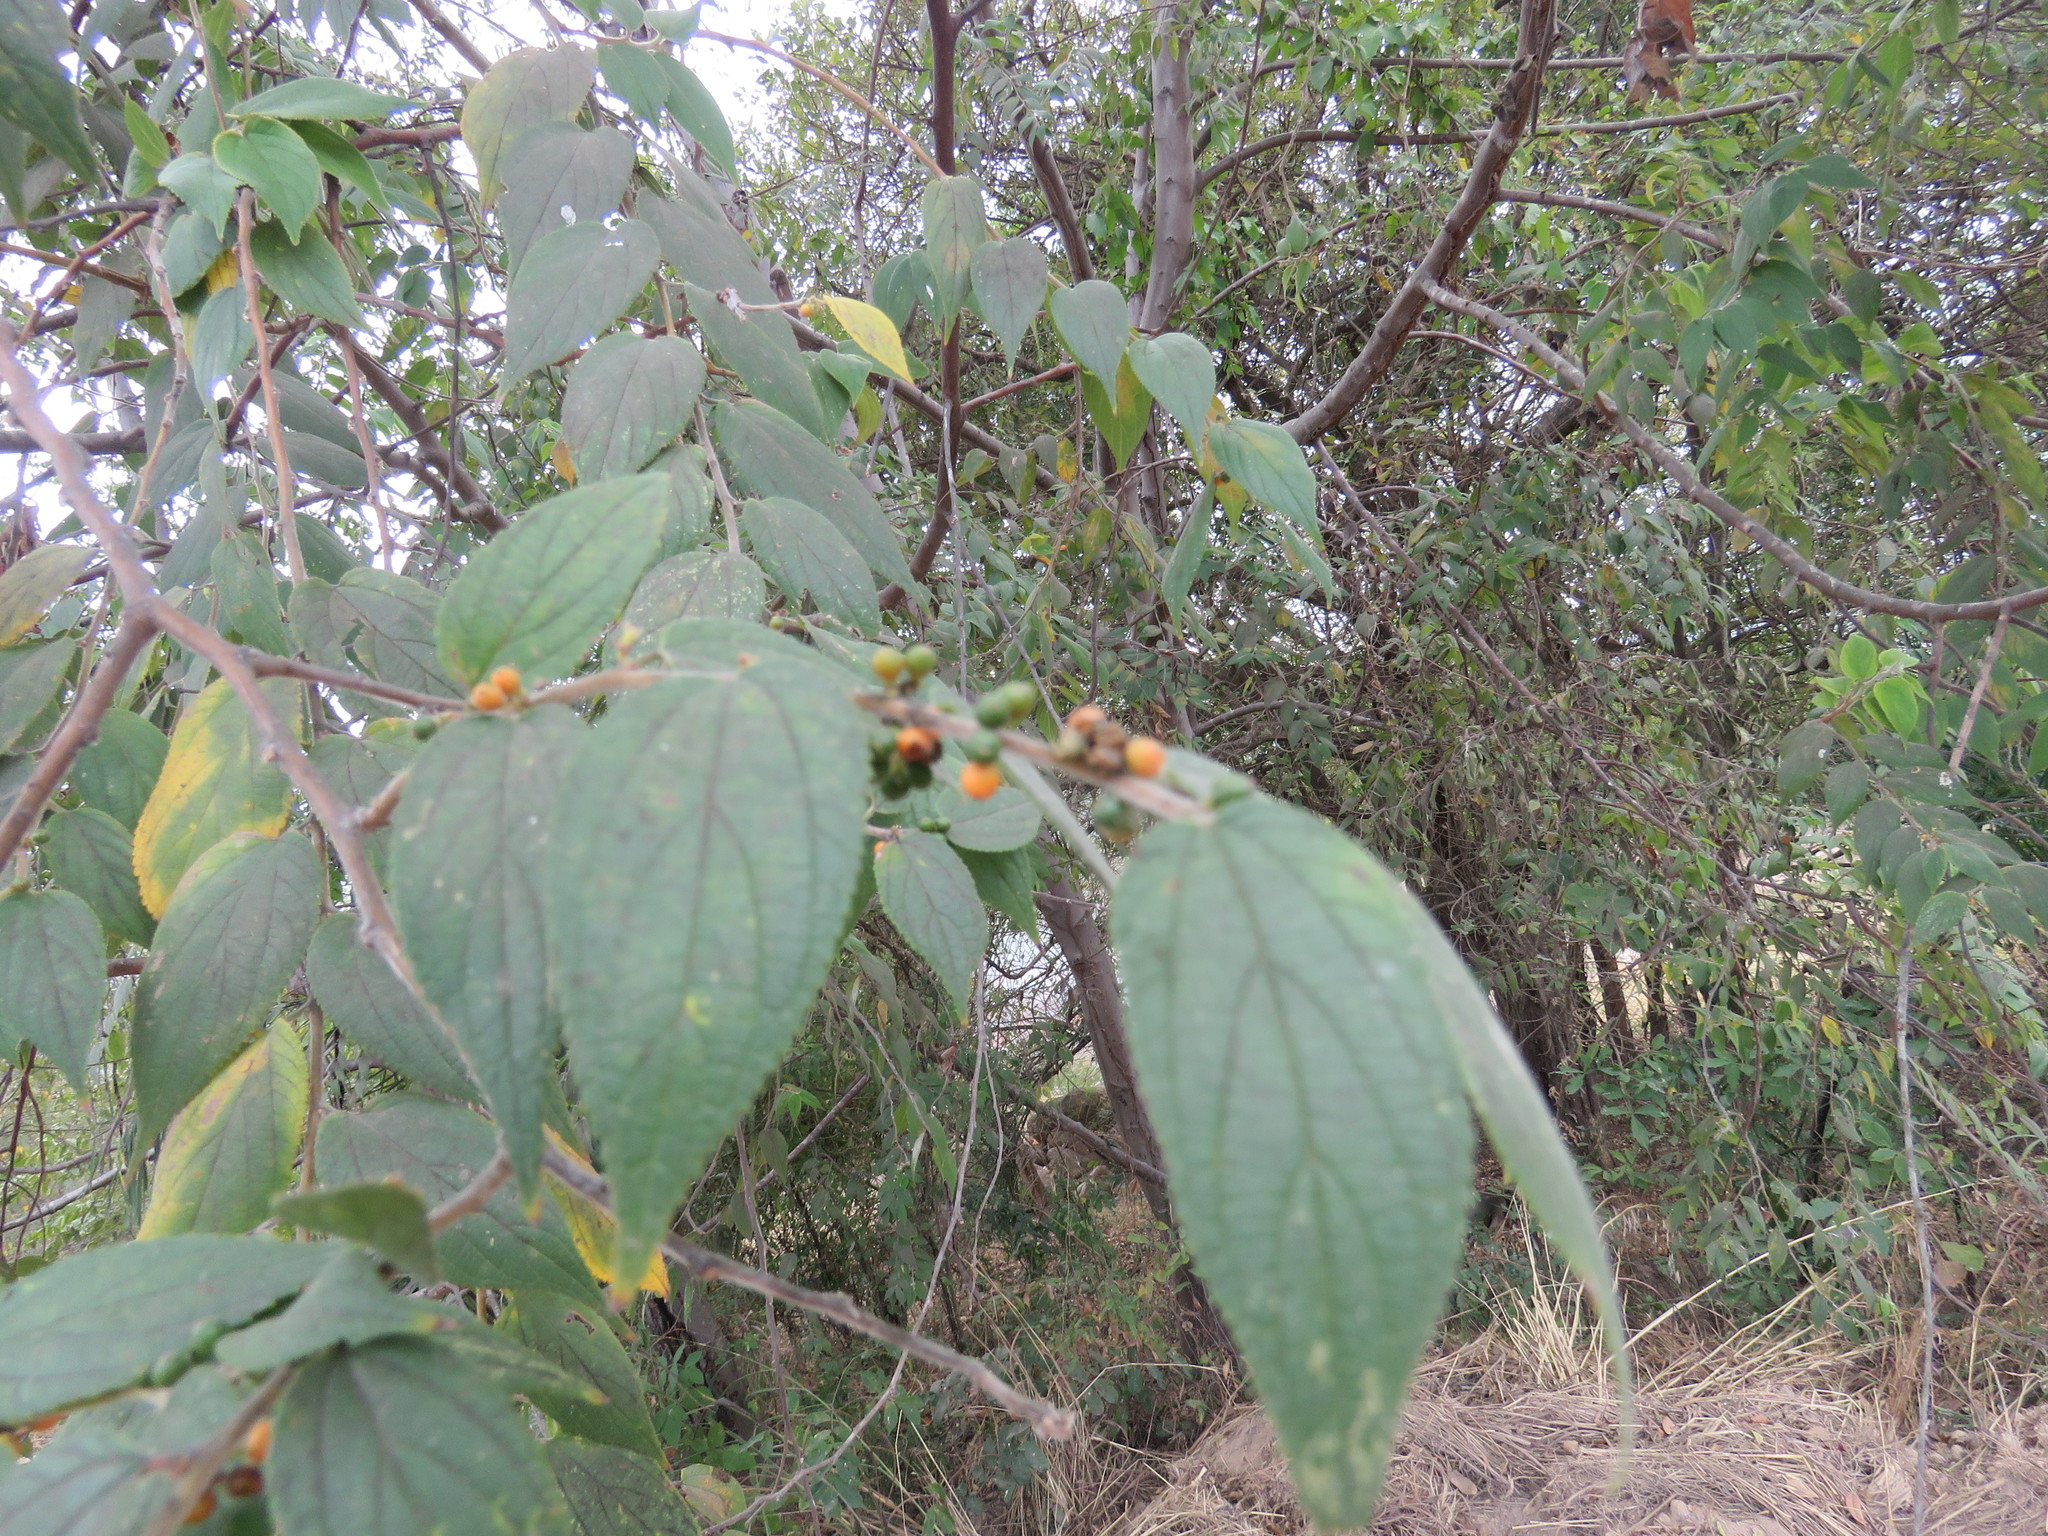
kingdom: Plantae
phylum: Tracheophyta
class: Magnoliopsida
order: Rosales
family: Cannabaceae
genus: Trema
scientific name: Trema micranthum
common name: Jamaican nettletree
